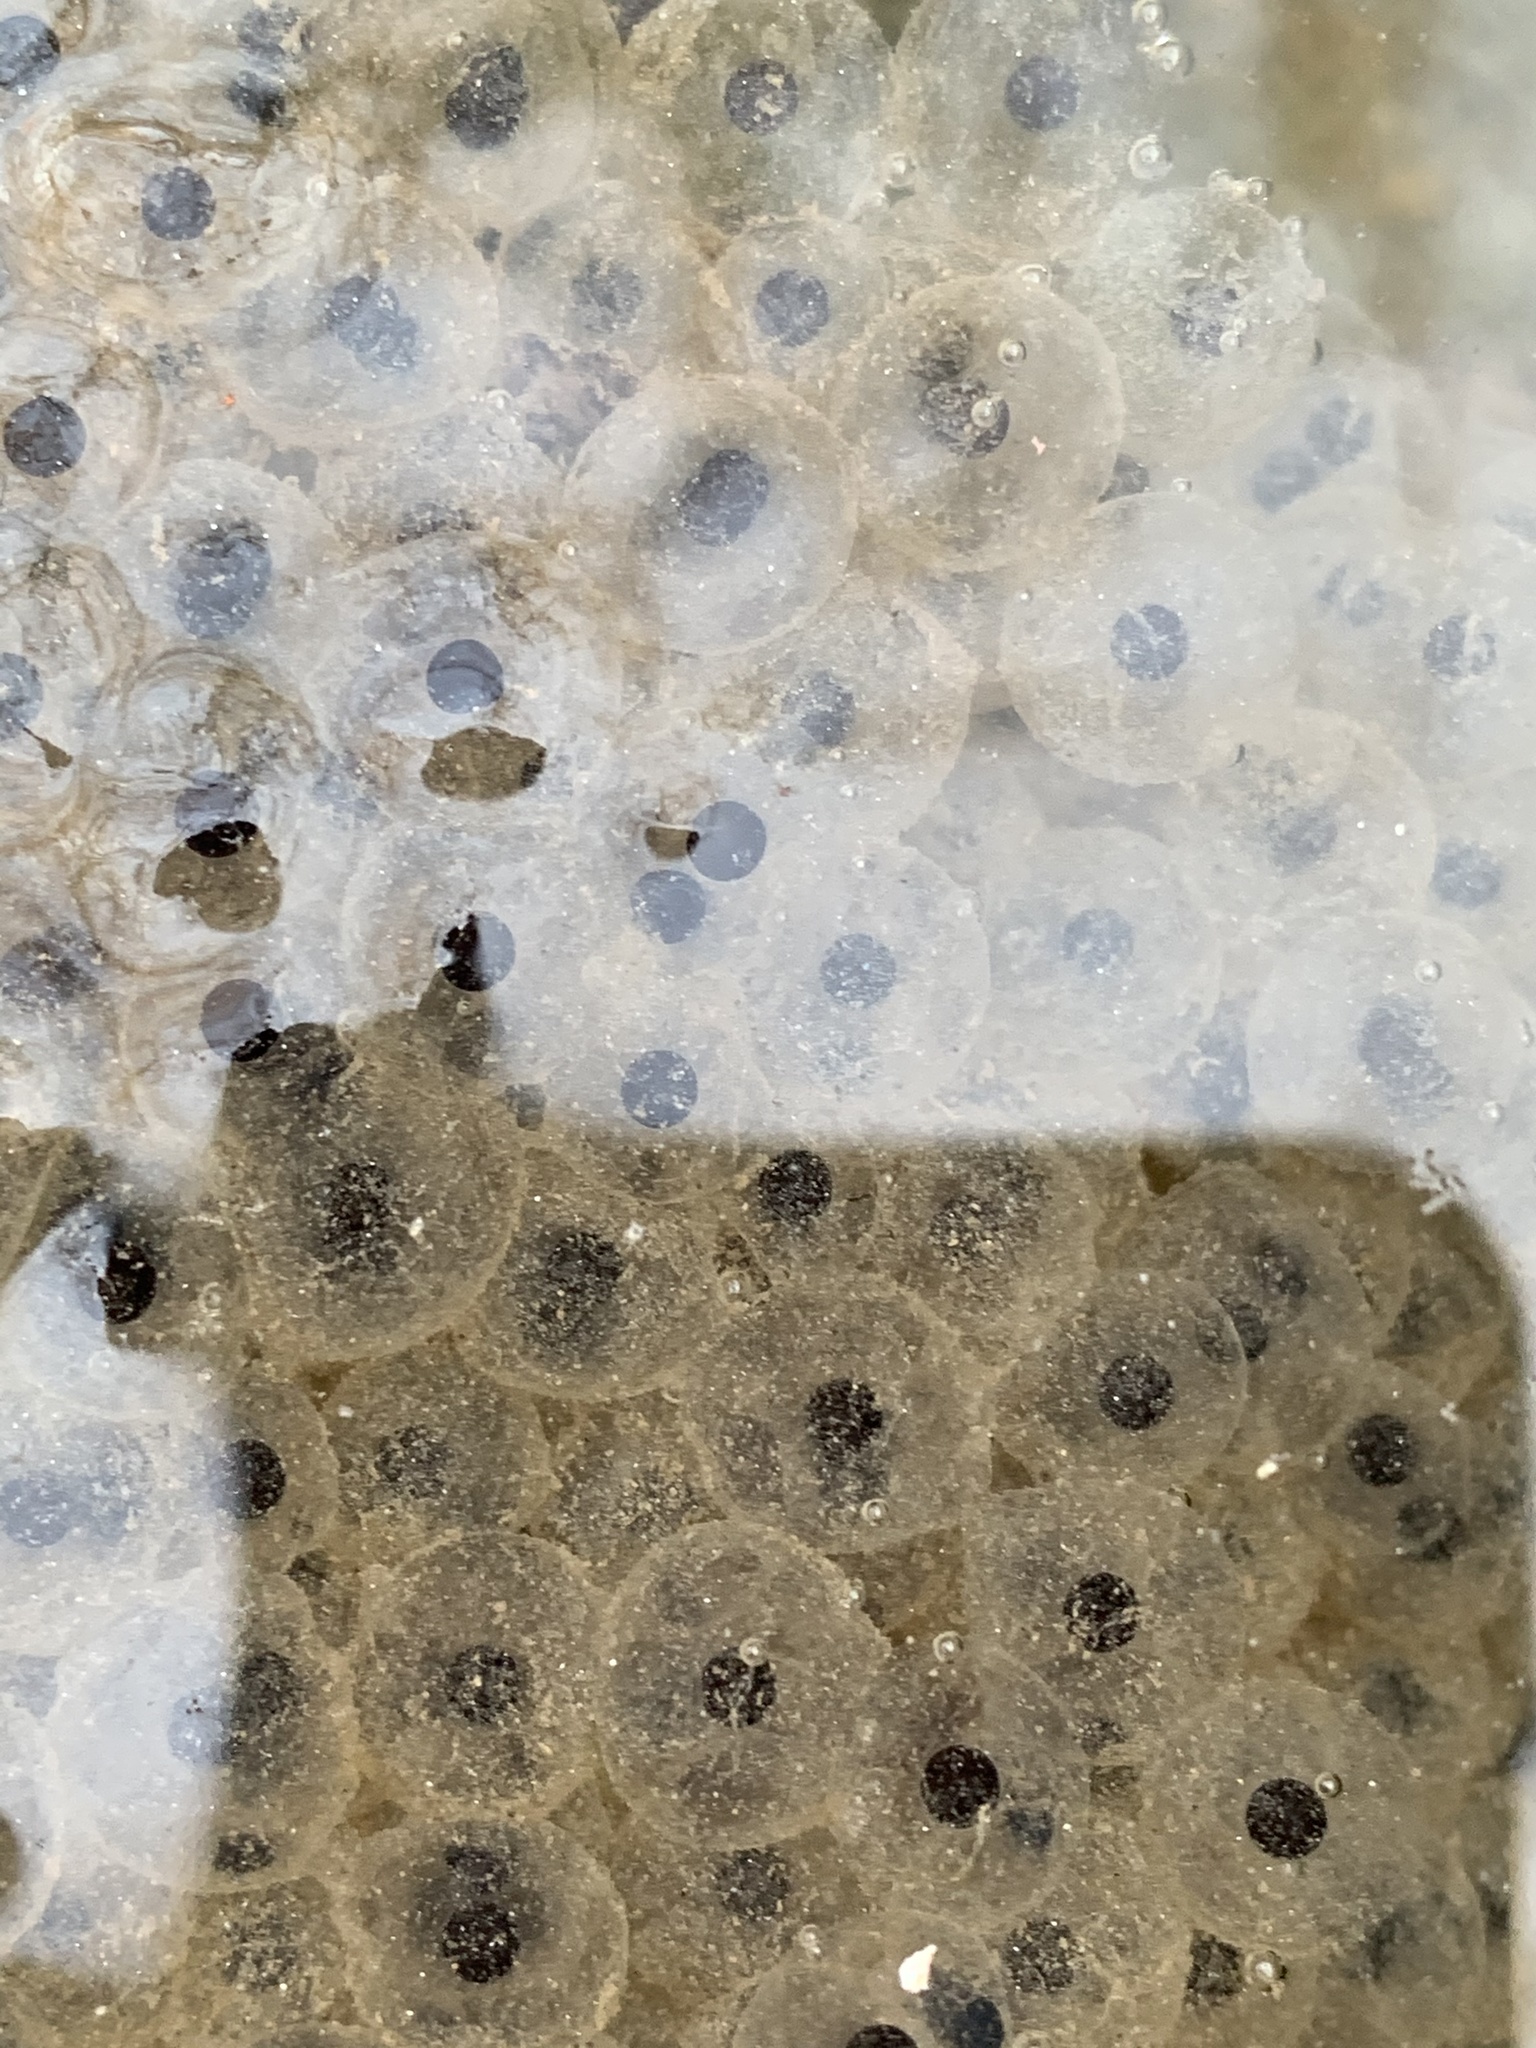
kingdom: Animalia
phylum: Chordata
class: Amphibia
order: Anura
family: Ranidae
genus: Lithobates
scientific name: Lithobates sylvaticus
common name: Wood frog
